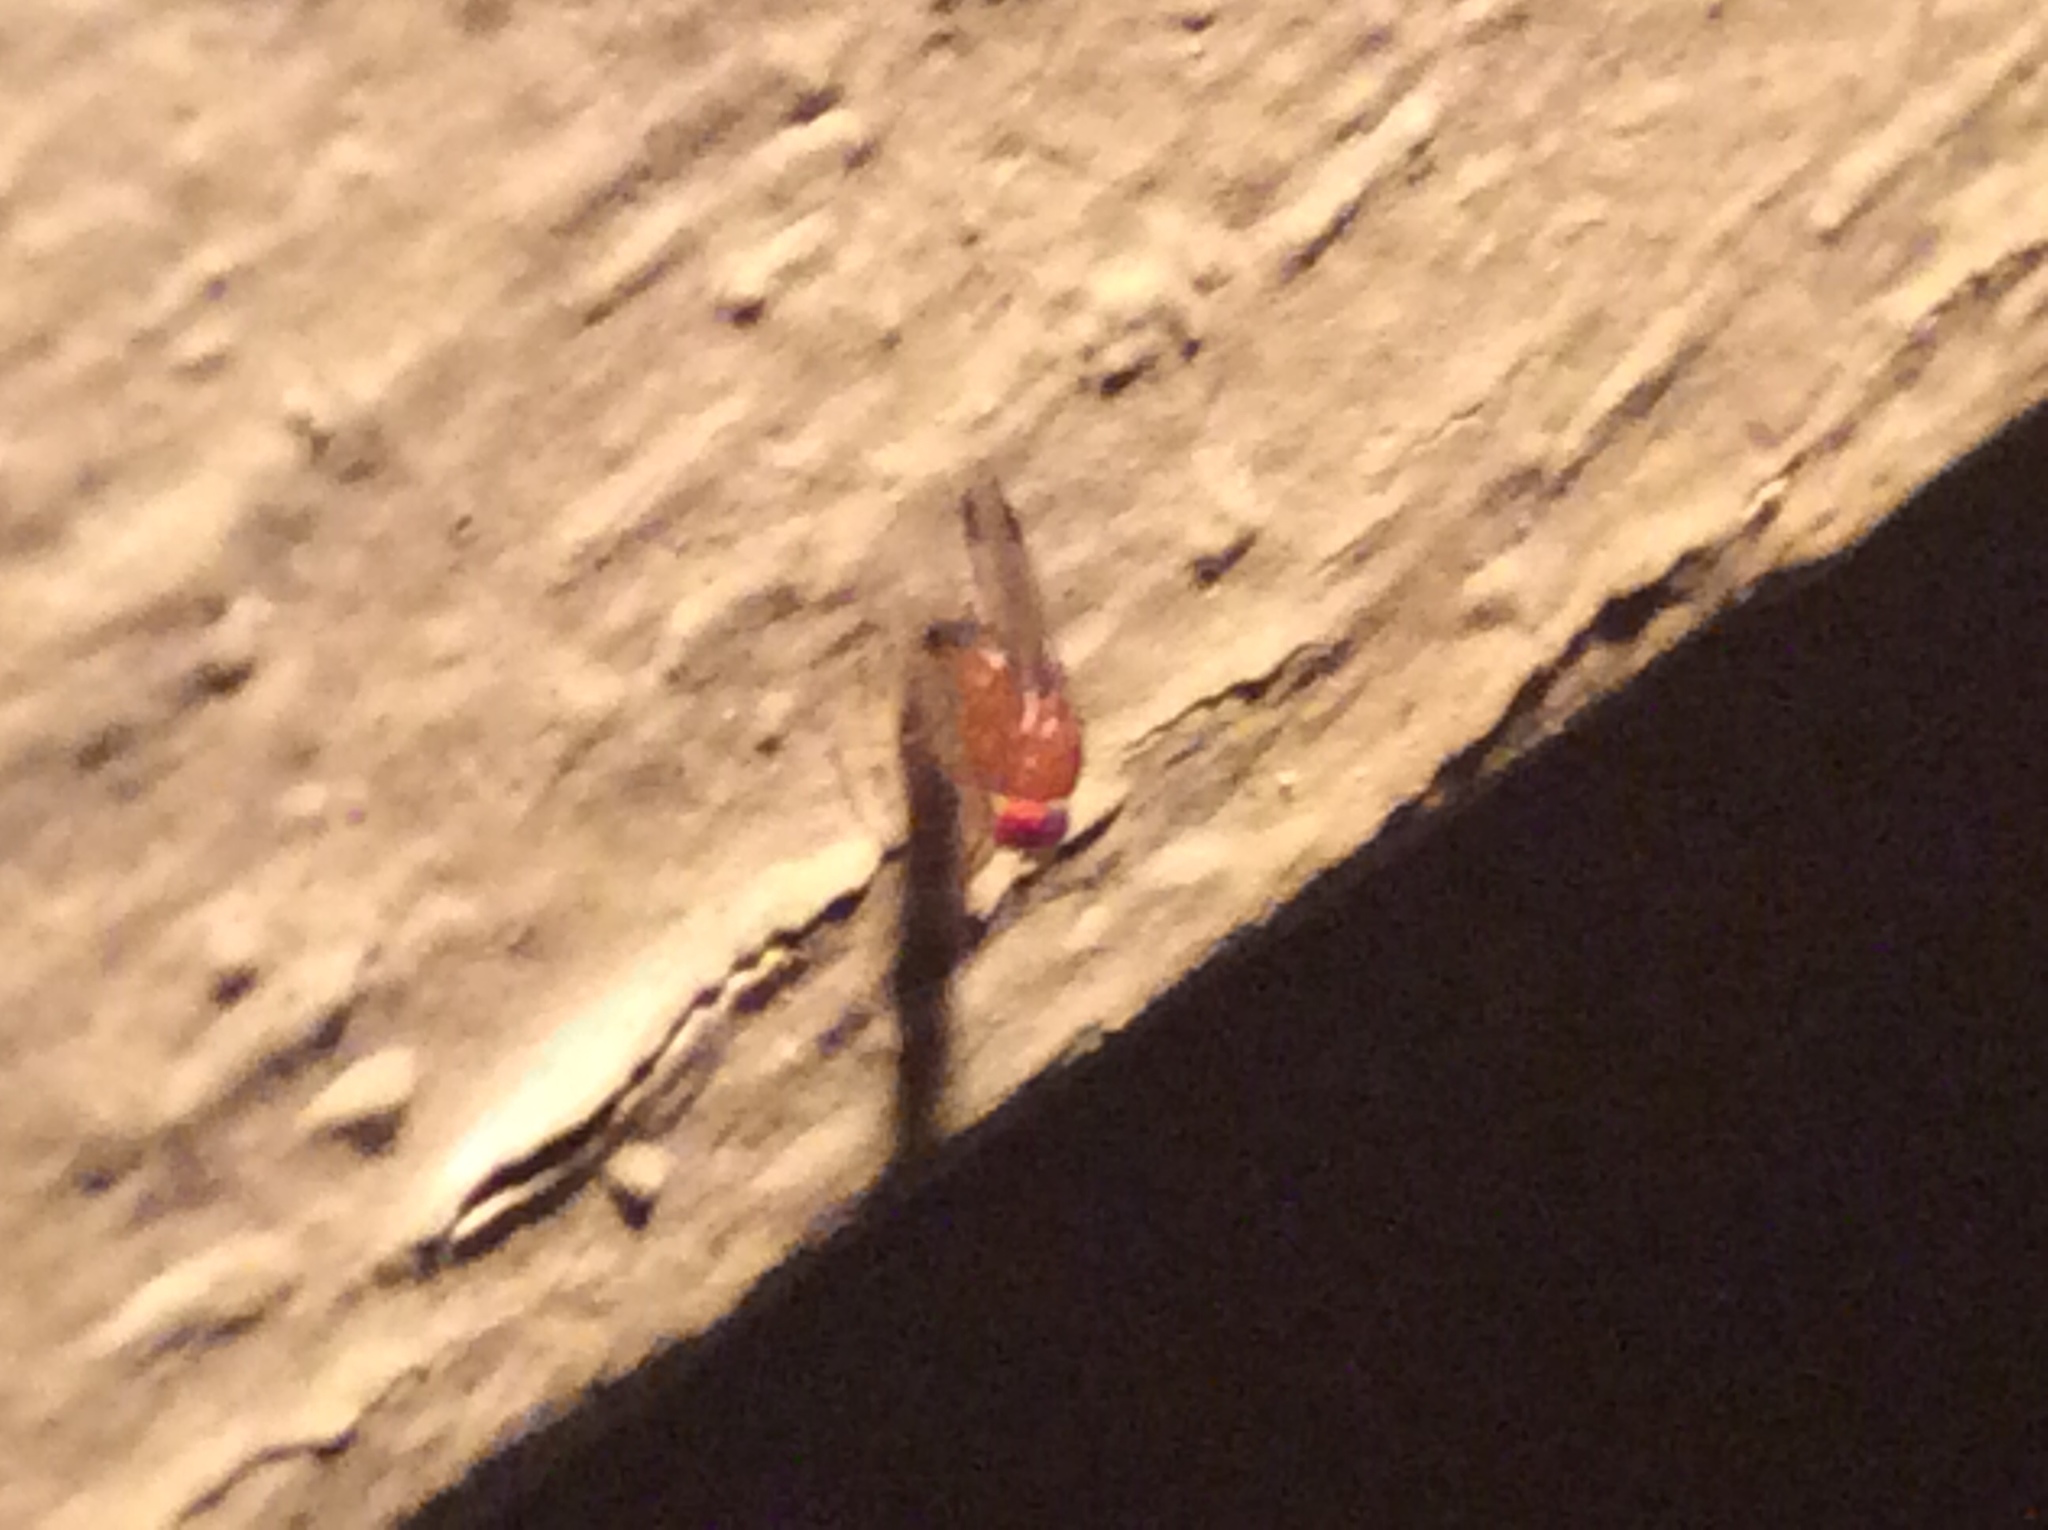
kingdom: Animalia
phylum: Arthropoda
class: Insecta
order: Diptera
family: Drosophilidae
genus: Drosophila
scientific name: Drosophila suzukii
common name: Spotted-wing drosophila
